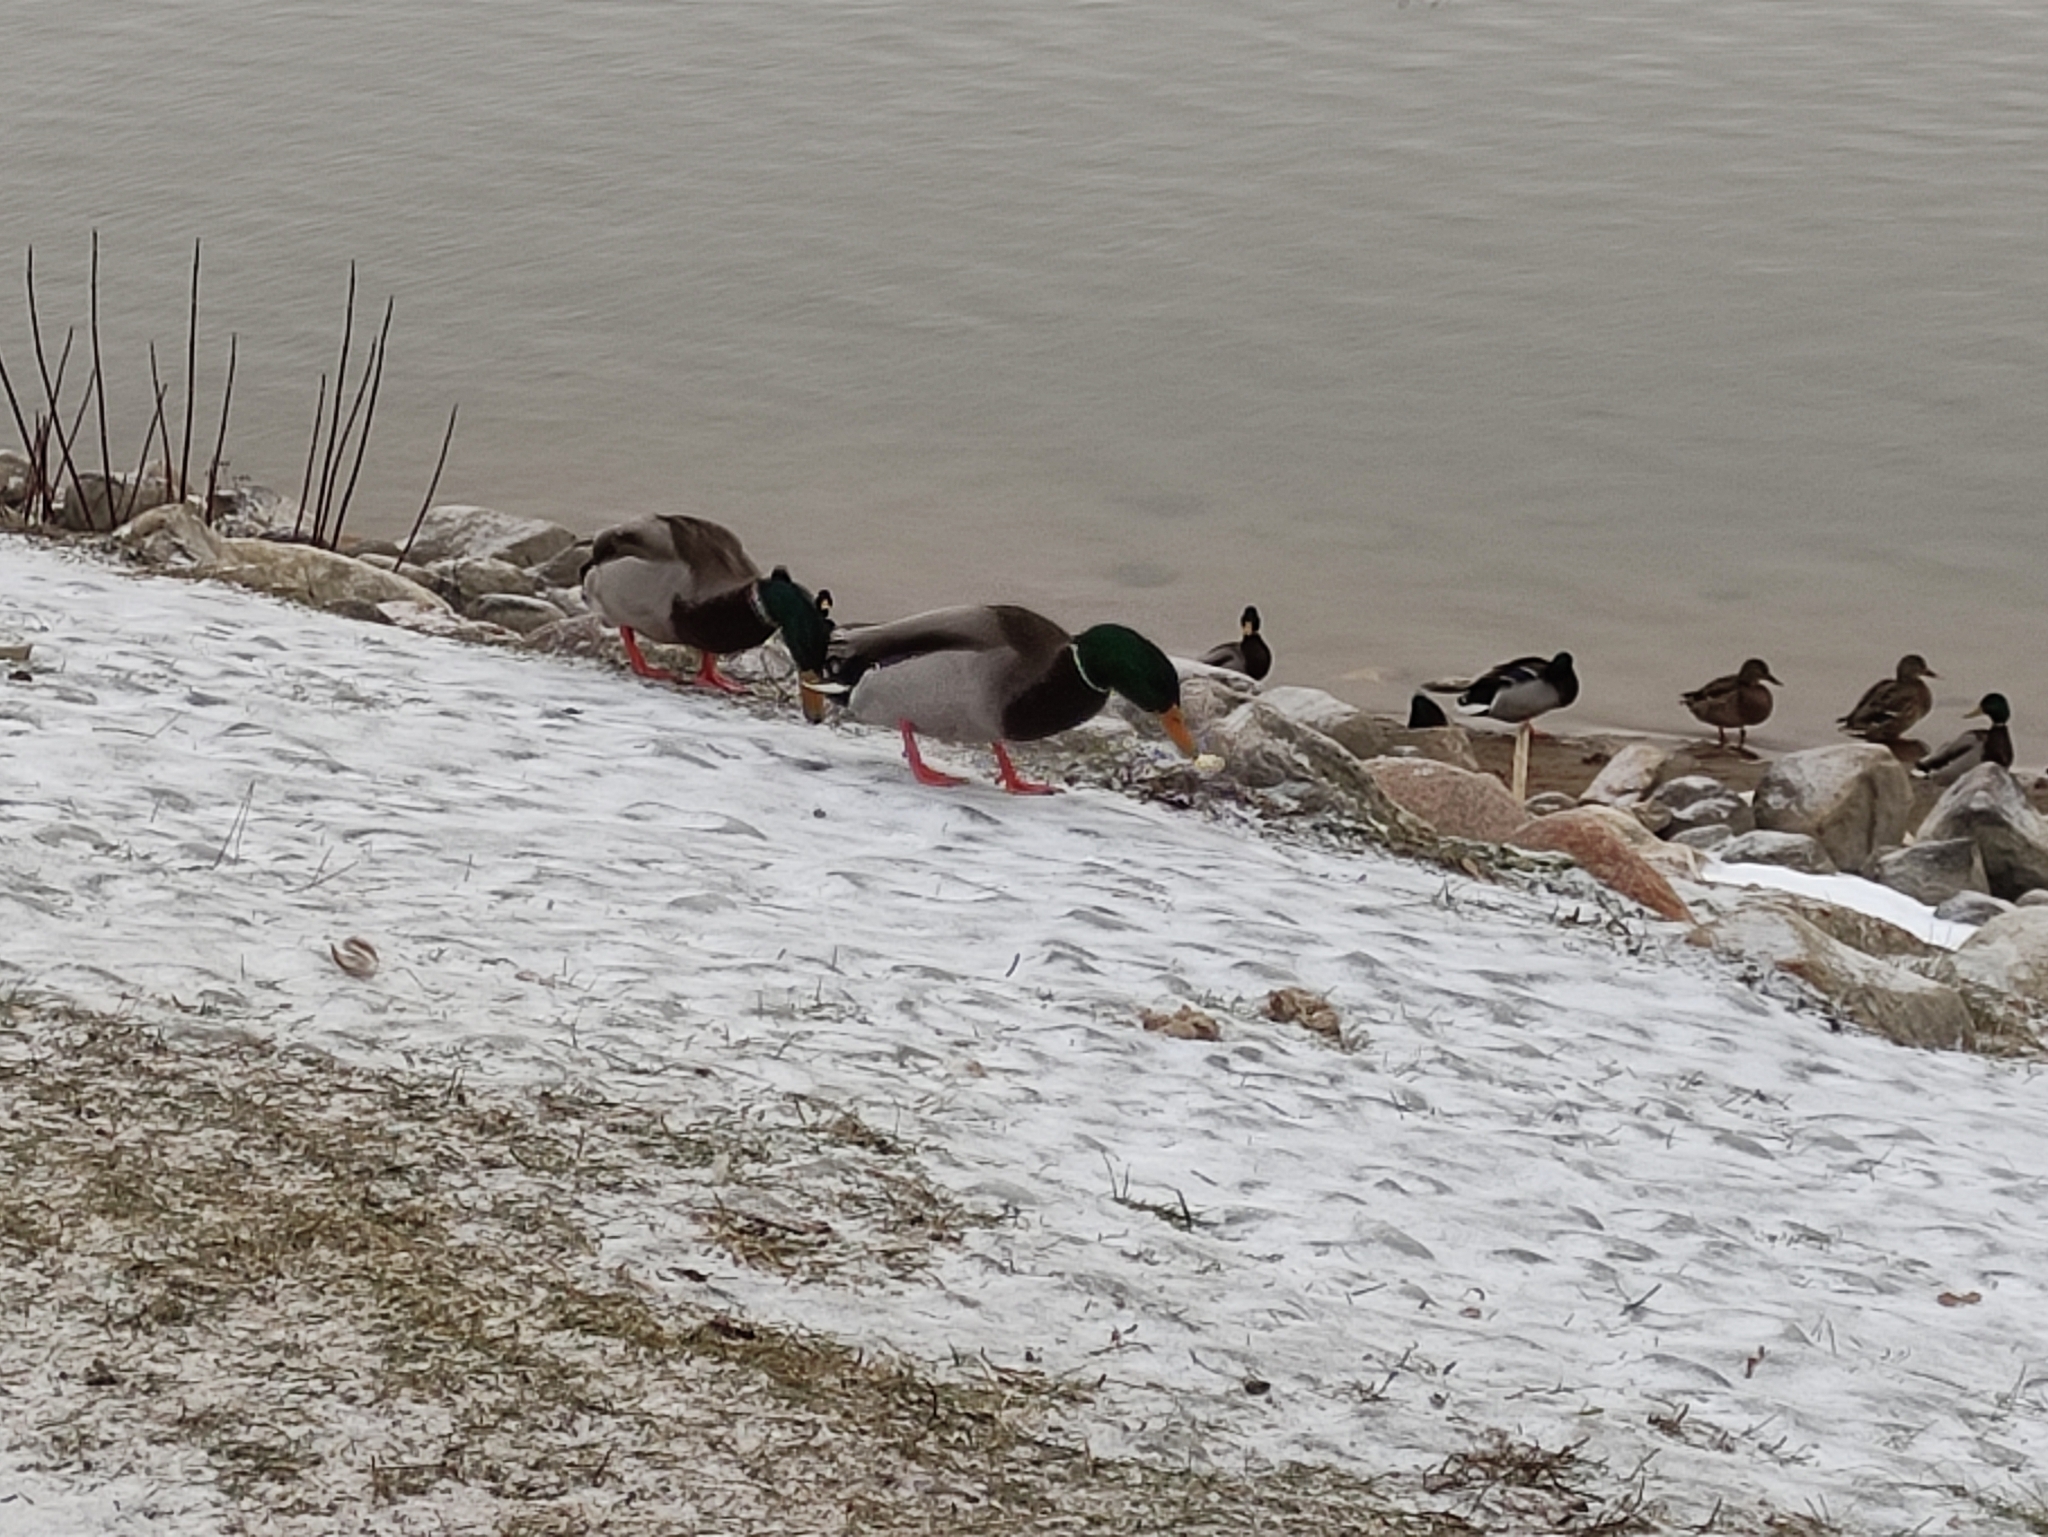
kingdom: Animalia
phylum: Chordata
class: Aves
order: Anseriformes
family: Anatidae
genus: Anas
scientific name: Anas platyrhynchos
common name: Mallard
